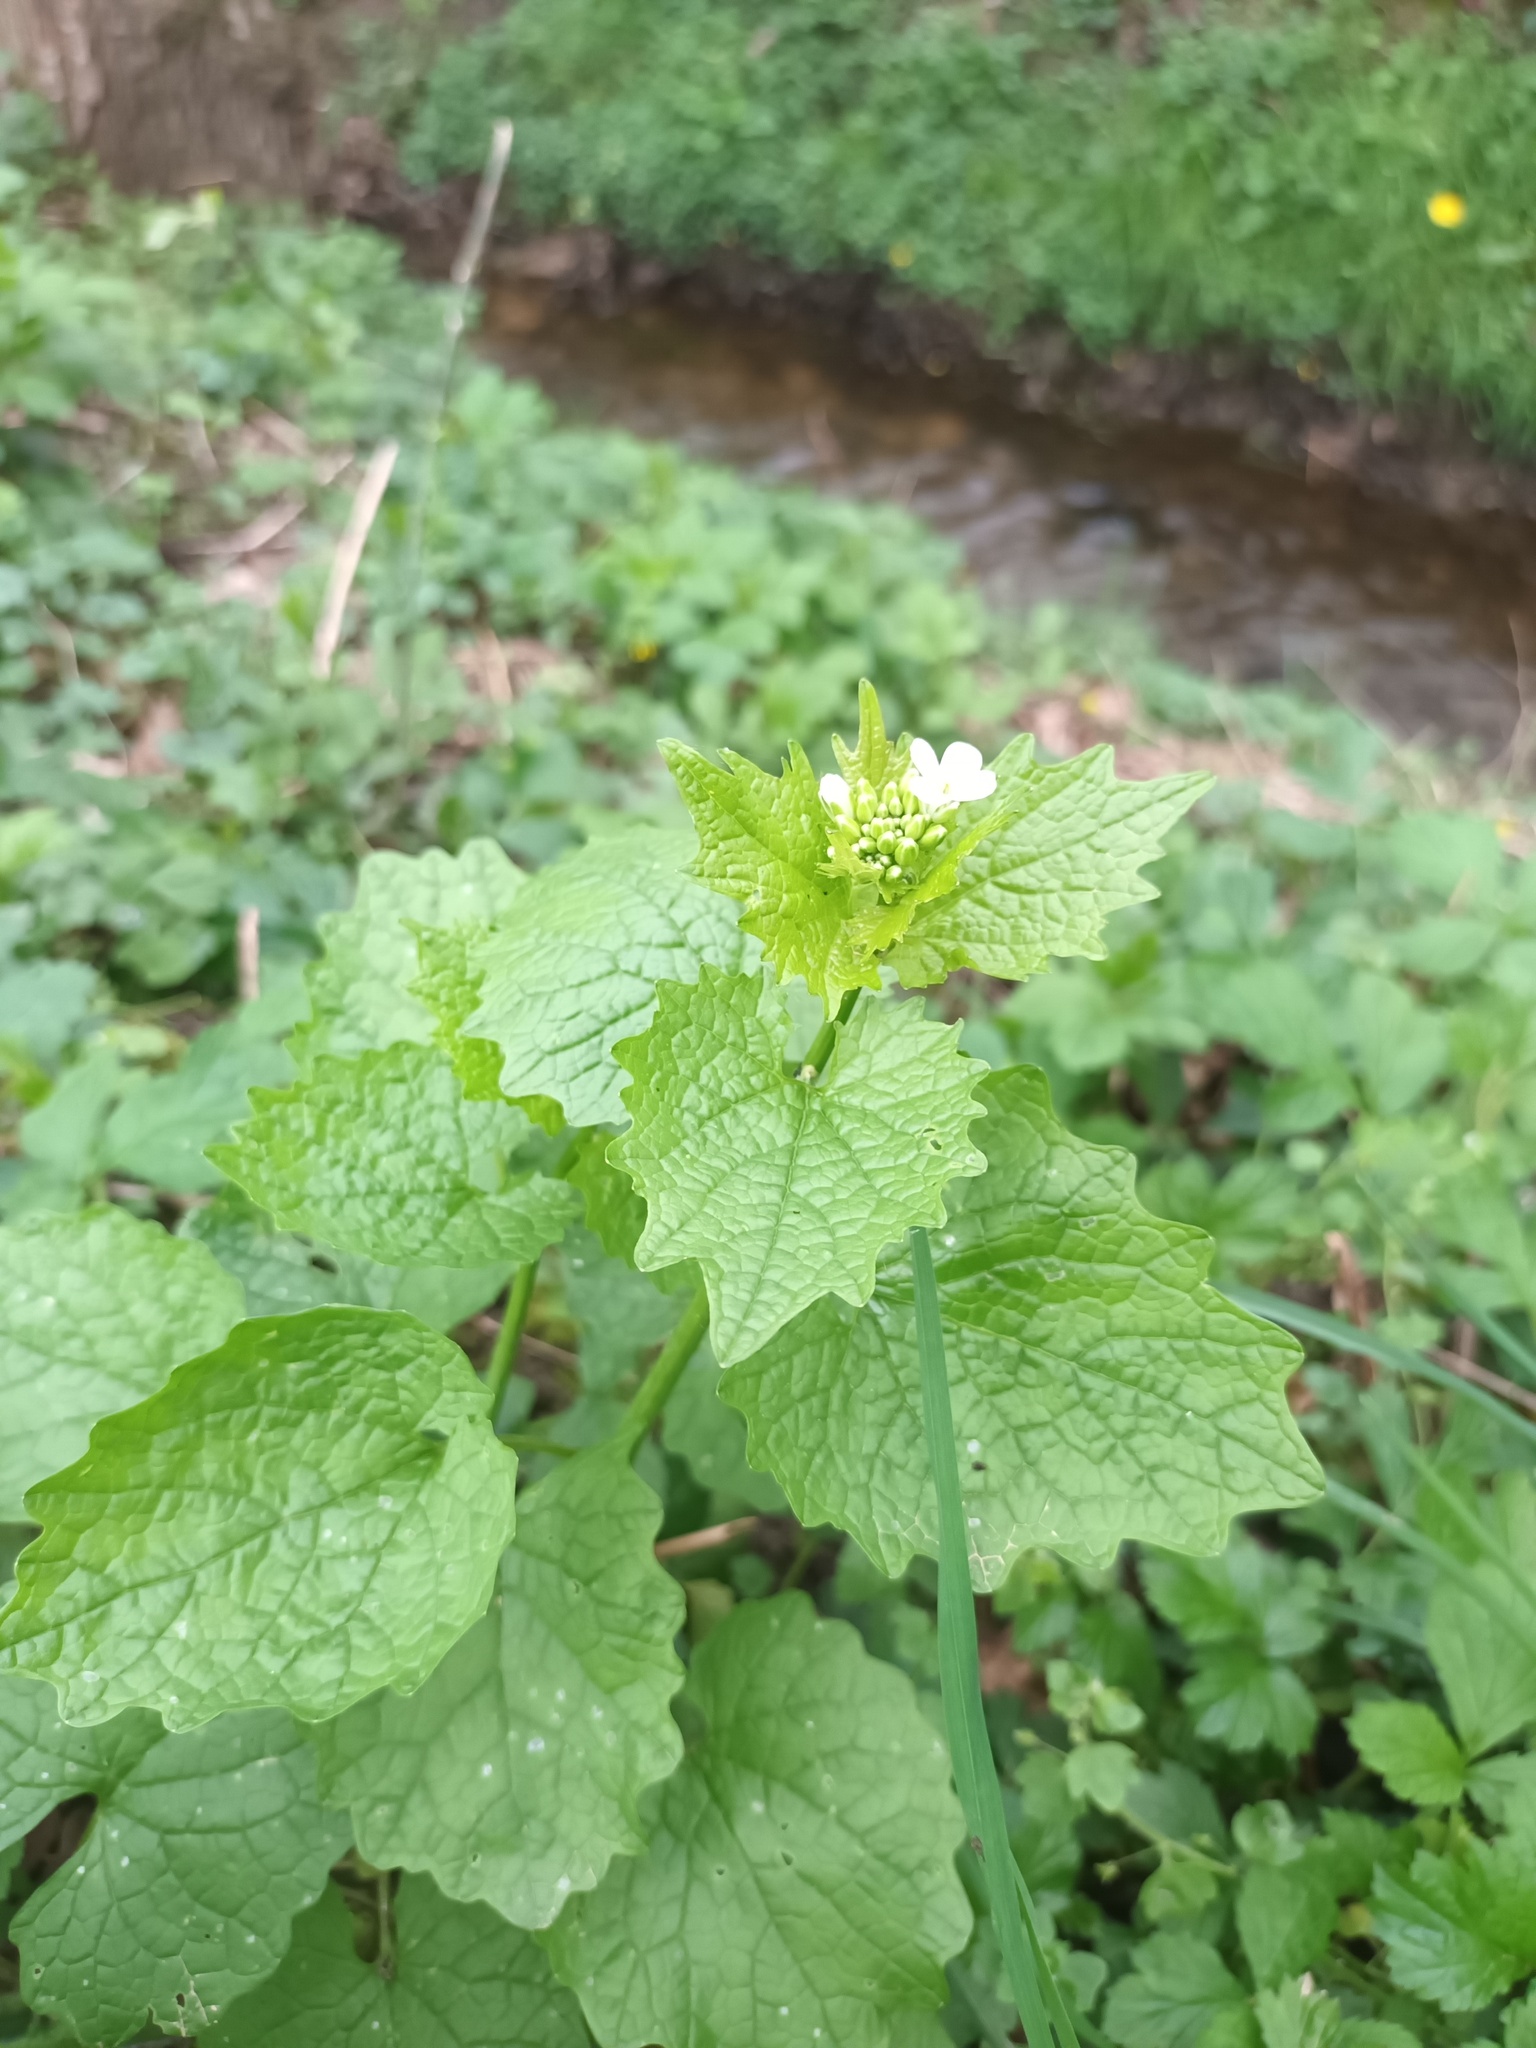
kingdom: Plantae
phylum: Tracheophyta
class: Magnoliopsida
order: Brassicales
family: Brassicaceae
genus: Alliaria
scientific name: Alliaria petiolata
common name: Garlic mustard
